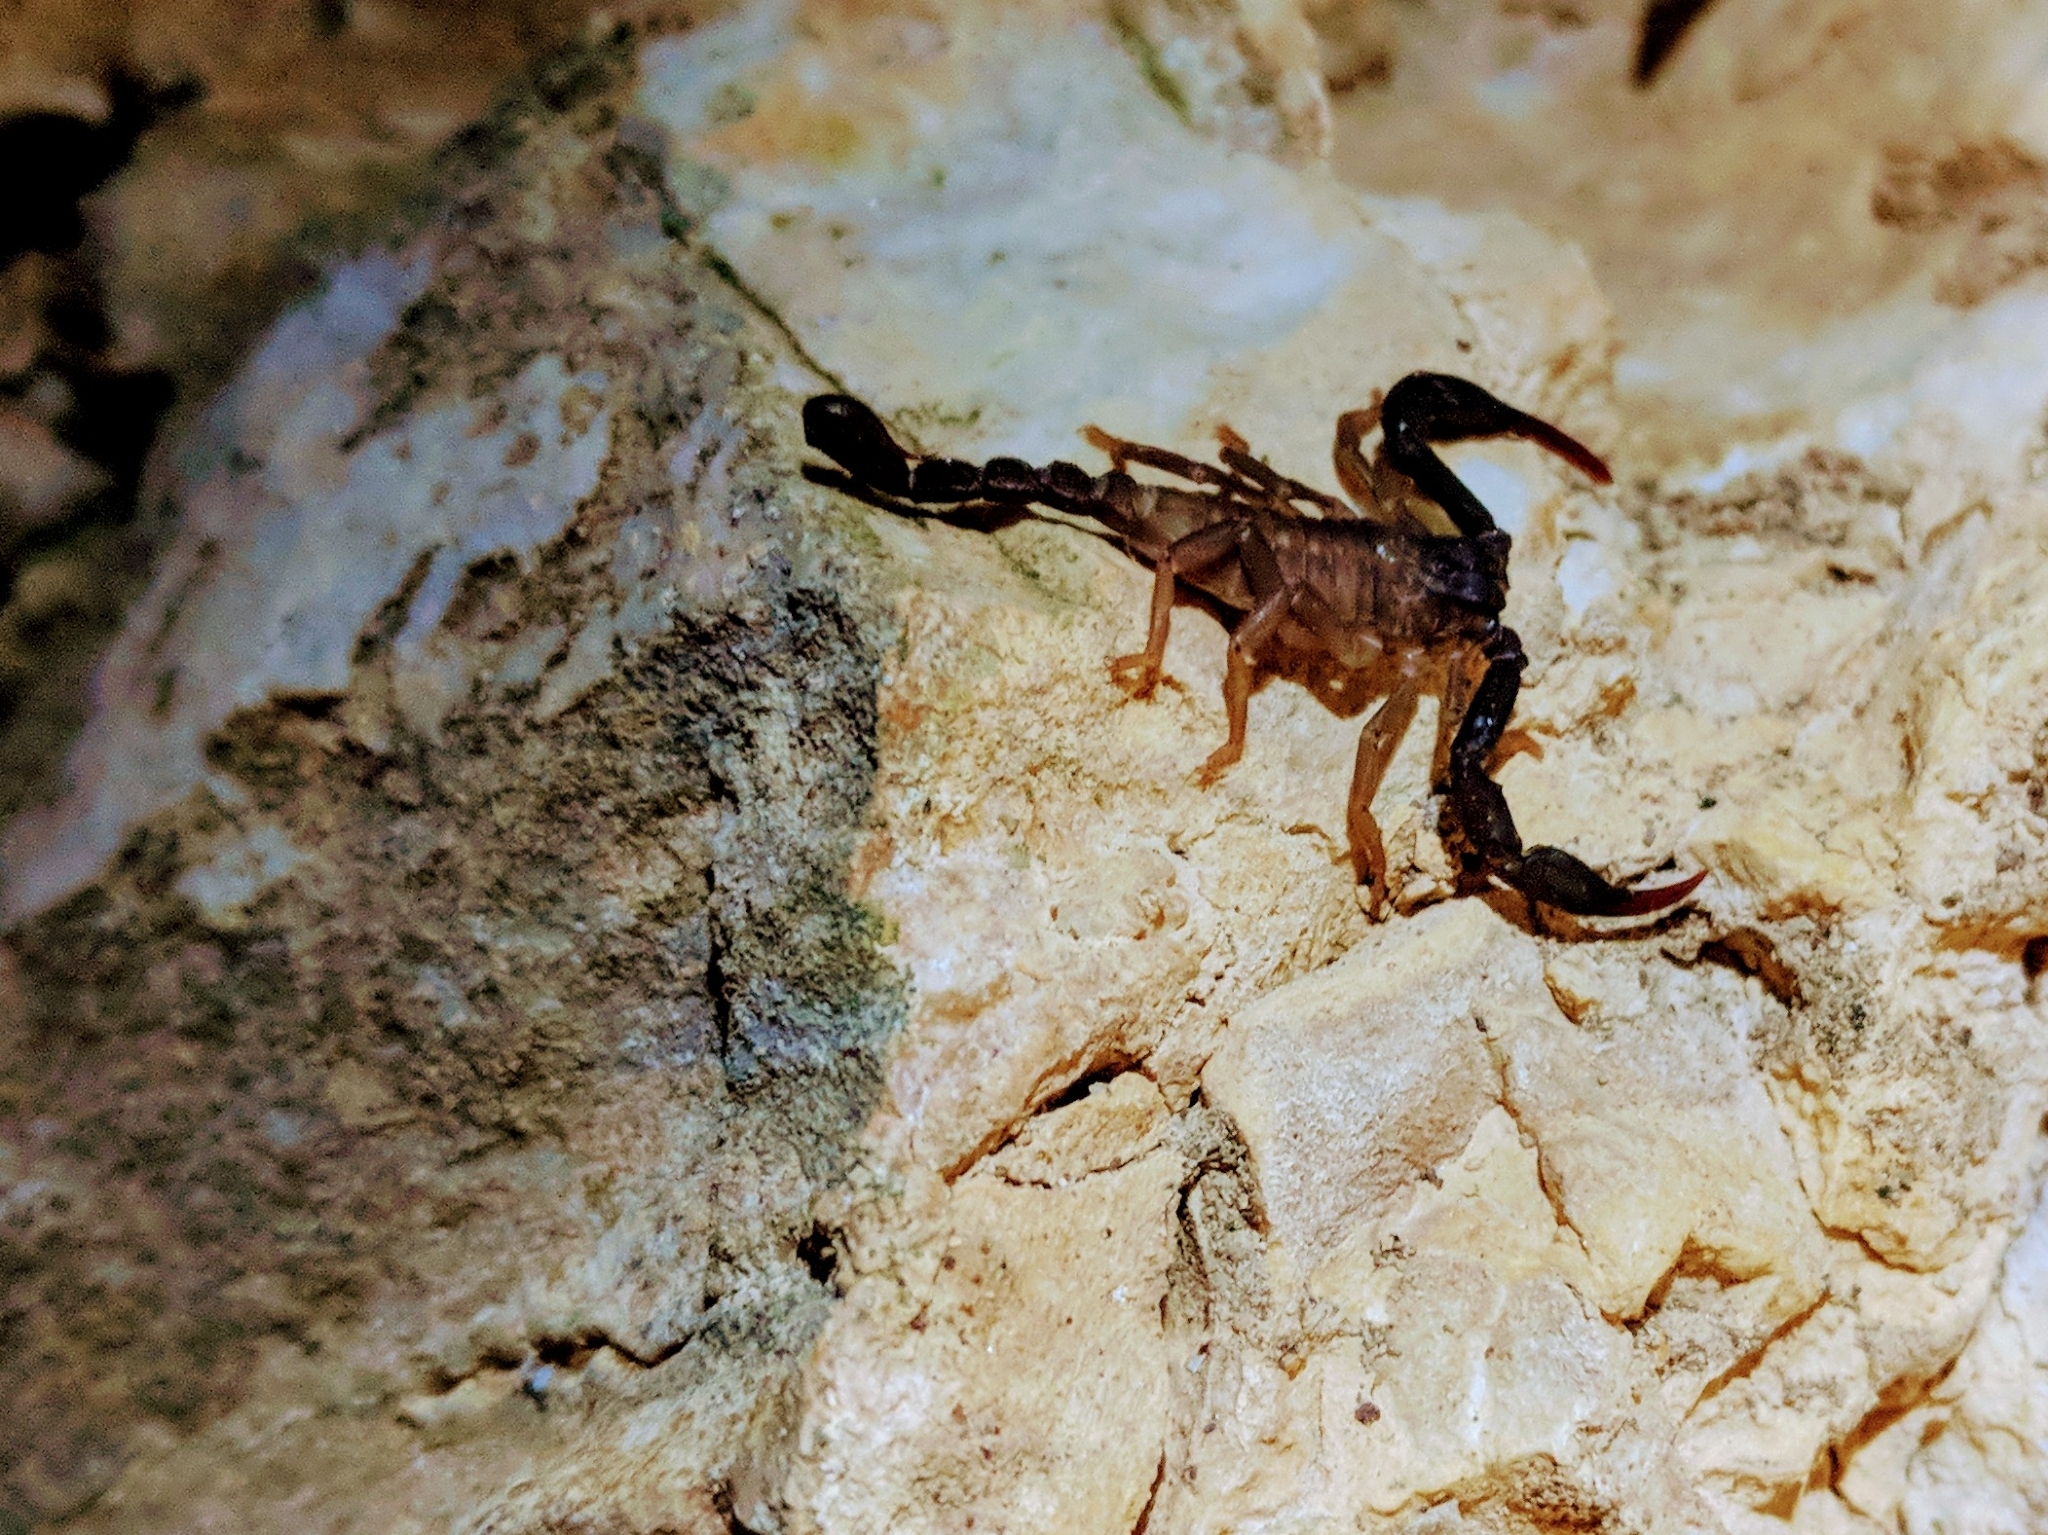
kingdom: Animalia
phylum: Arthropoda
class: Arachnida
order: Scorpiones
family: Iuridae
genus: Iurus
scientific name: Iurus dufoureius
